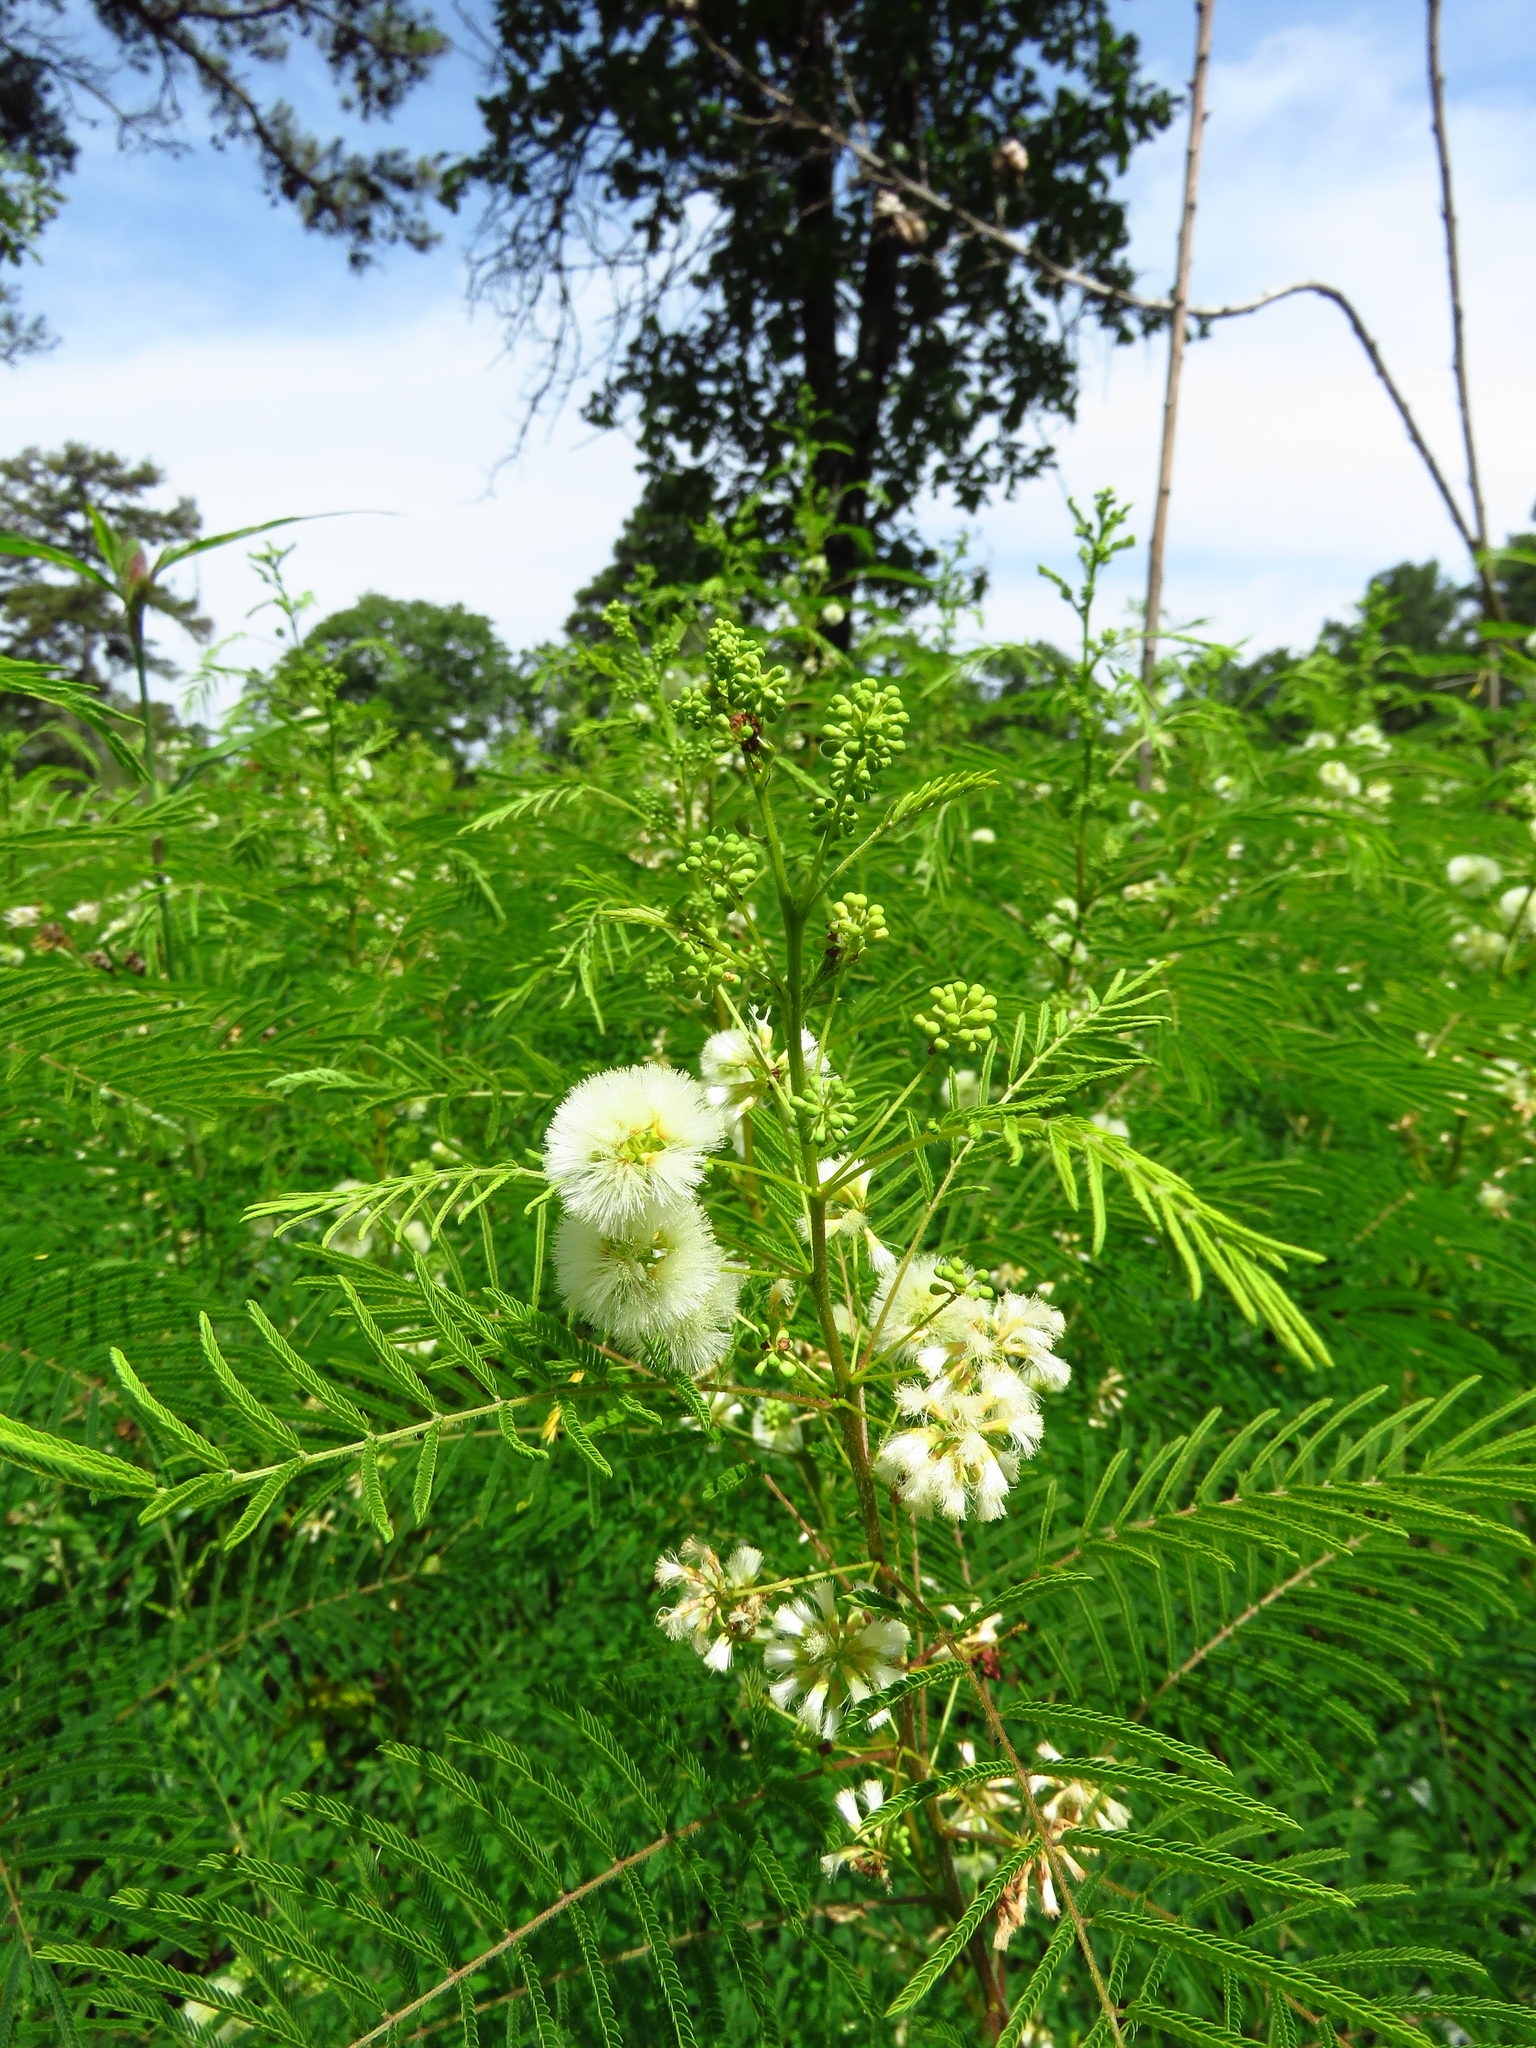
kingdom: Plantae
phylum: Tracheophyta
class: Magnoliopsida
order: Fabales
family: Fabaceae
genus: Acaciella
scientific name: Acaciella angustissima
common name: Prairie acacia
